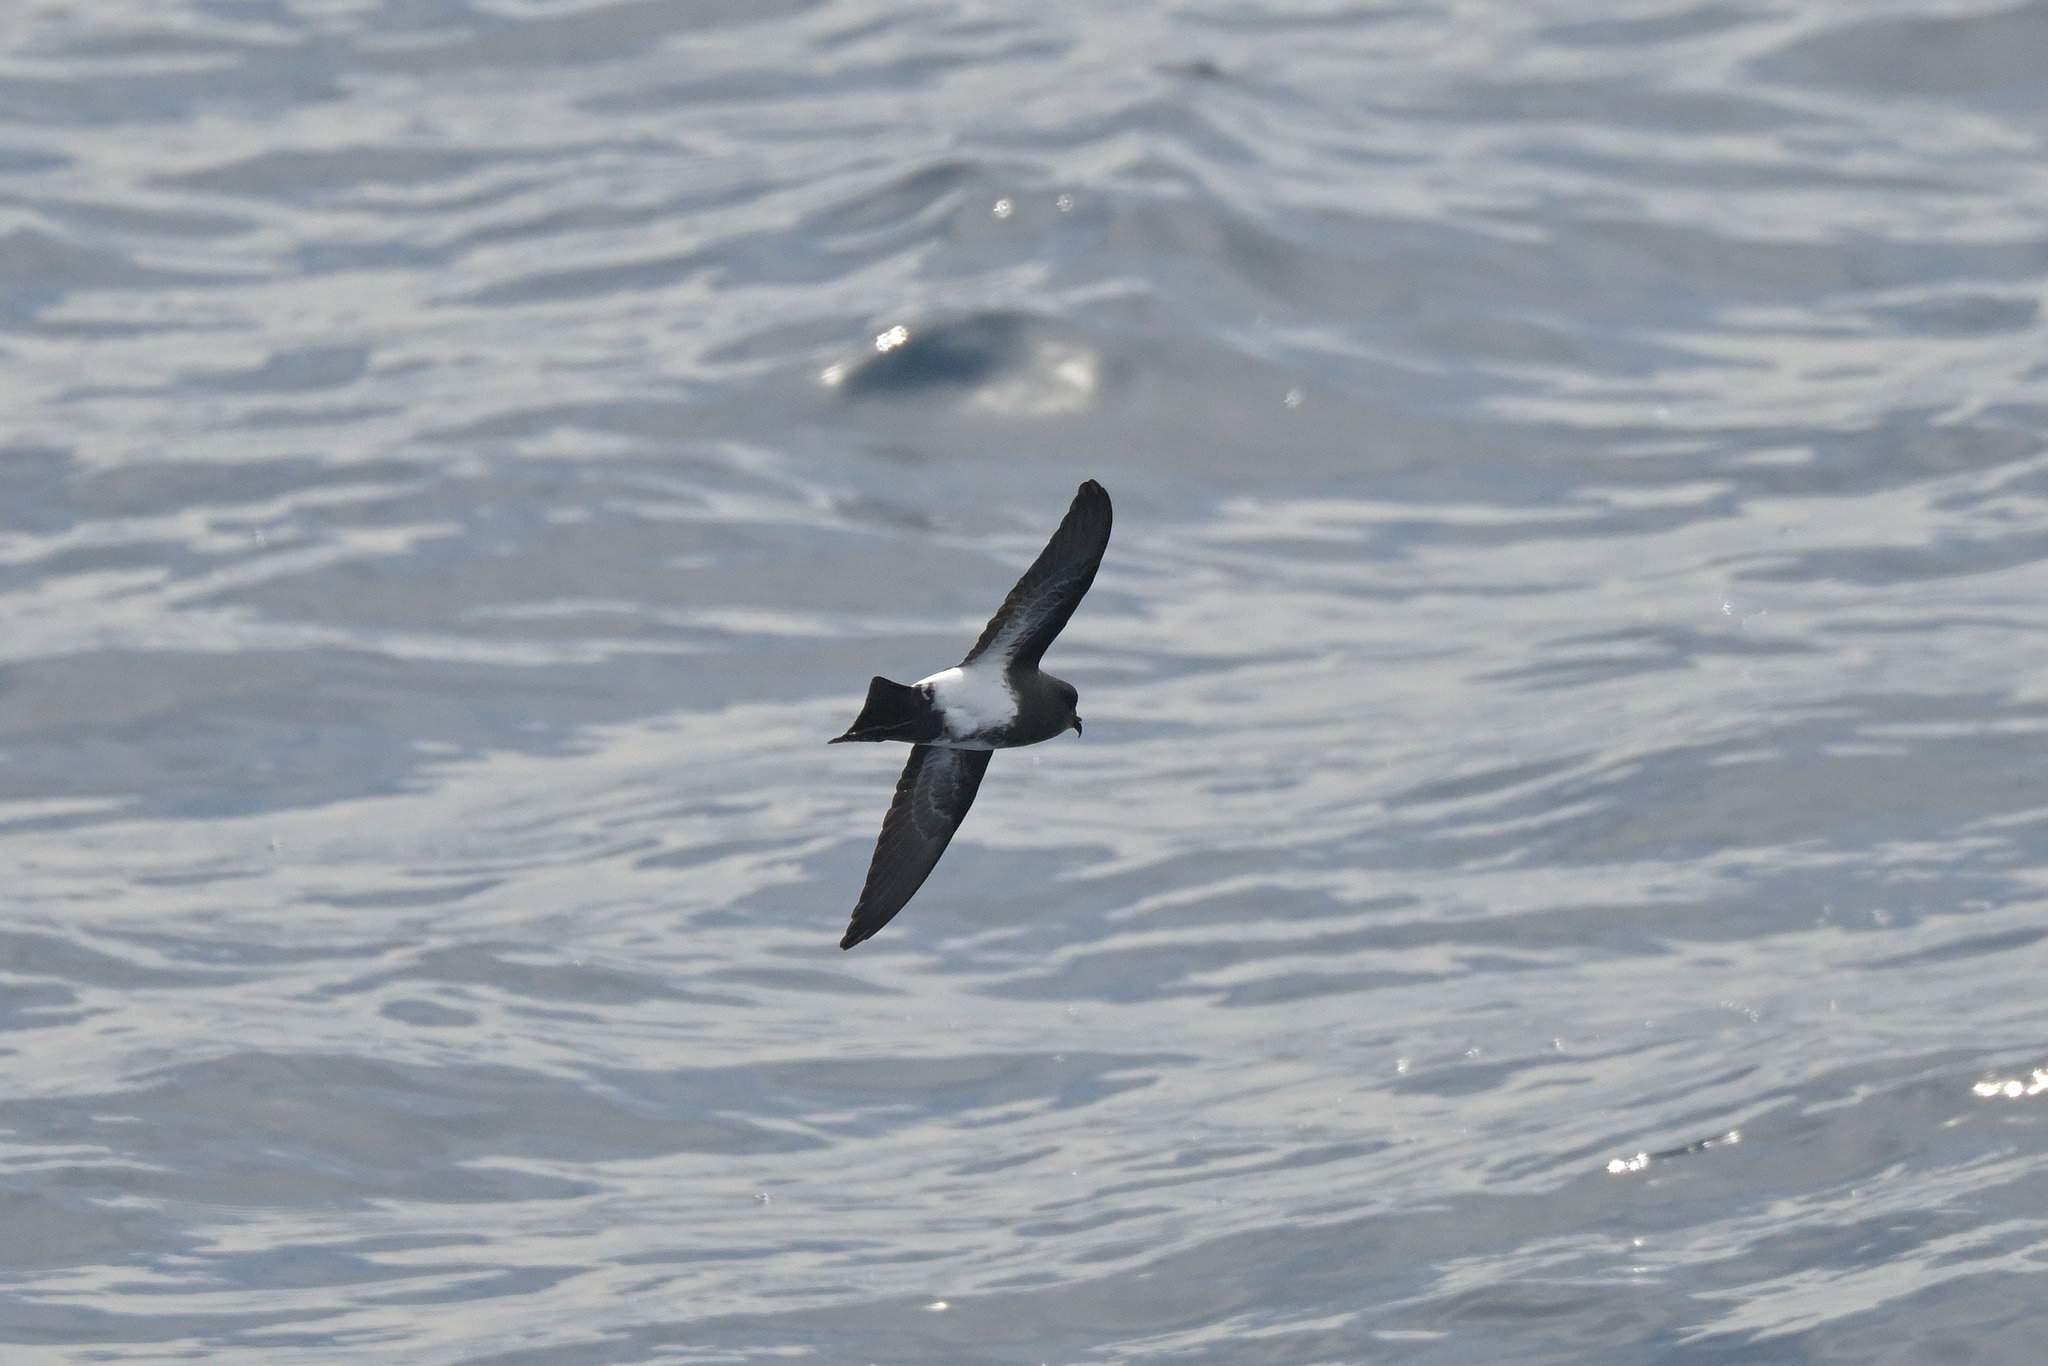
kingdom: Animalia
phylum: Chordata
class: Aves
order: Procellariiformes
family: Hydrobatidae
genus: Fregetta
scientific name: Fregetta tropica
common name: Black-bellied storm-petrel
